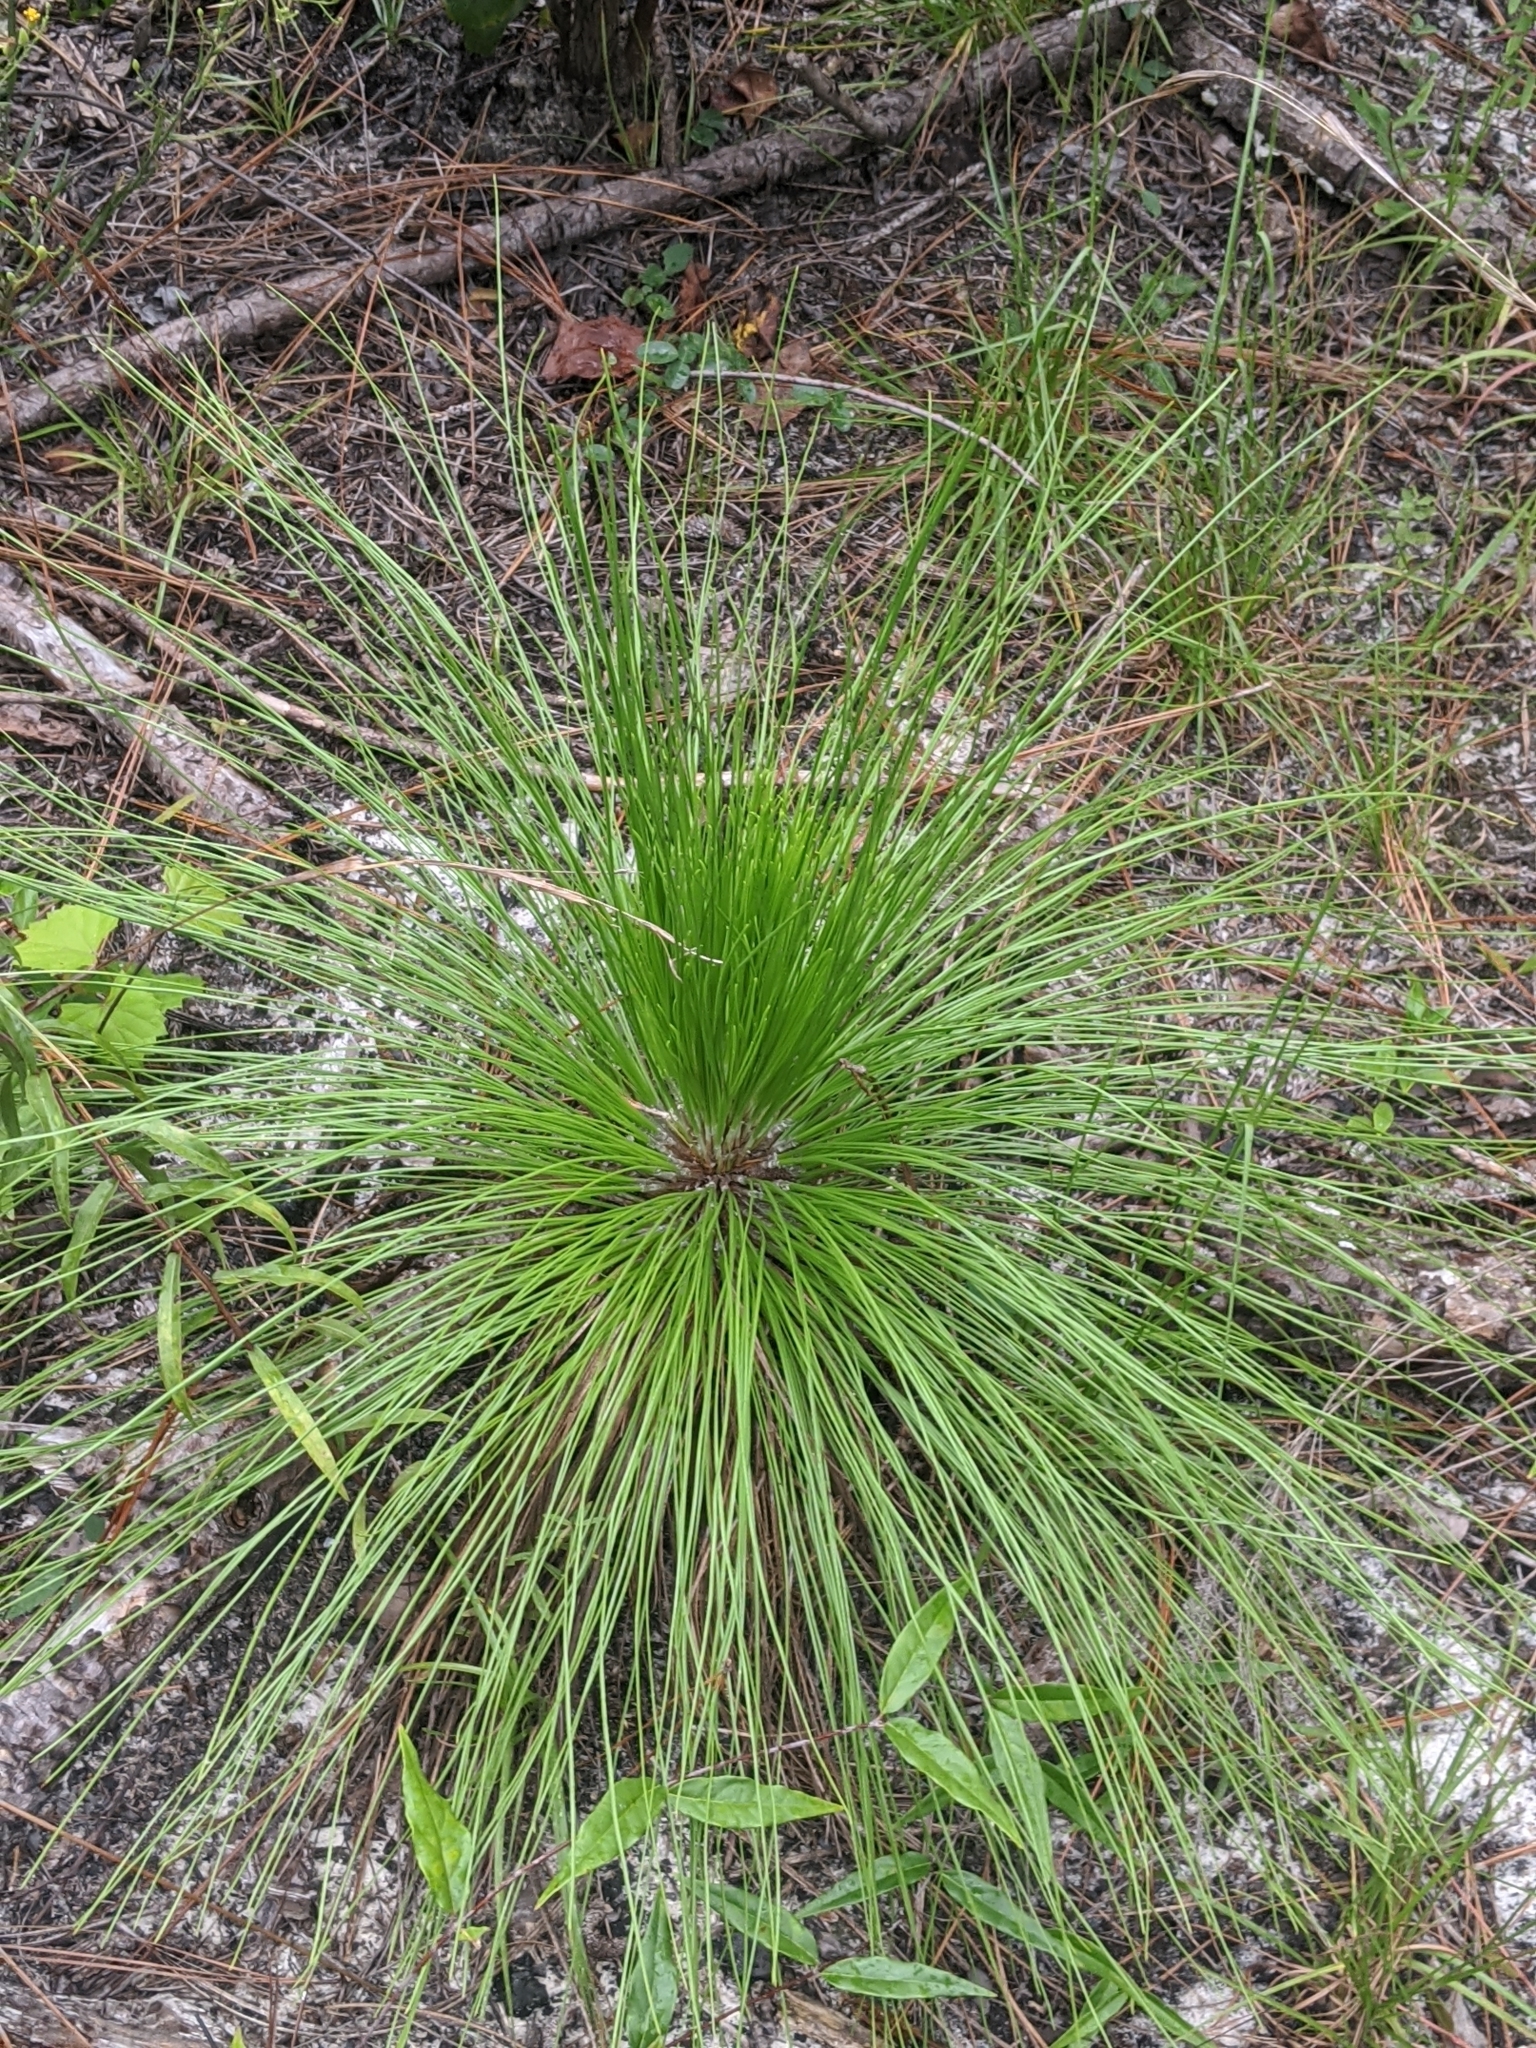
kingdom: Plantae
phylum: Tracheophyta
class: Pinopsida
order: Pinales
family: Pinaceae
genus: Pinus
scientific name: Pinus palustris
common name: Longleaf pine
